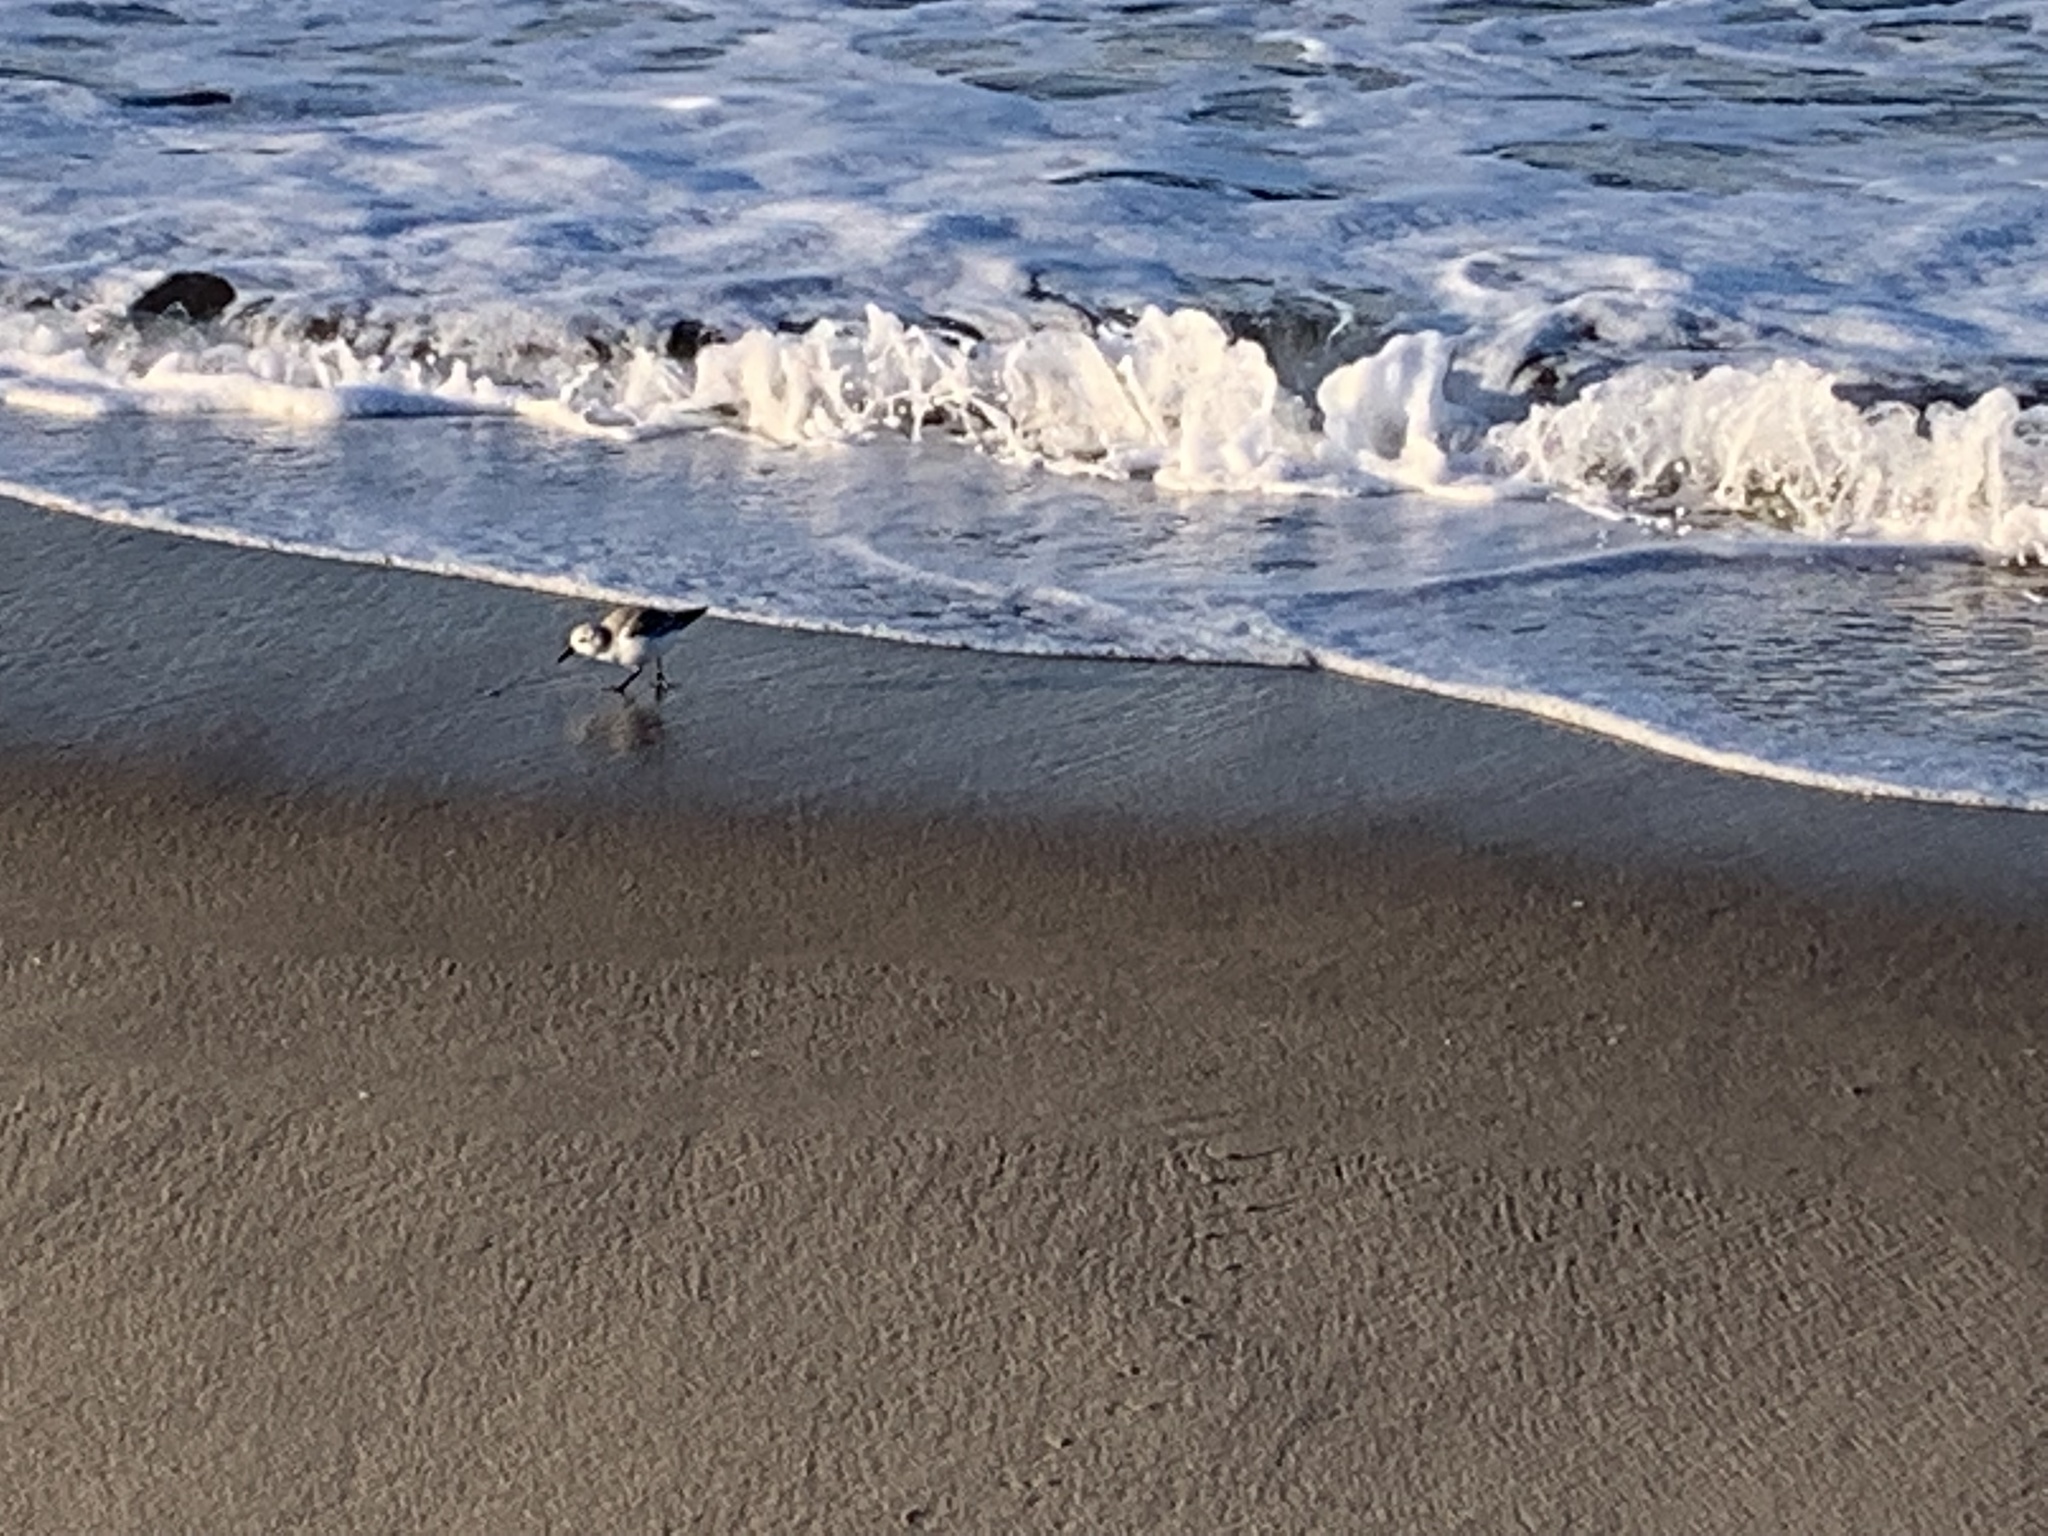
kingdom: Animalia
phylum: Chordata
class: Aves
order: Charadriiformes
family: Scolopacidae
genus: Calidris
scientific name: Calidris alba
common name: Sanderling
